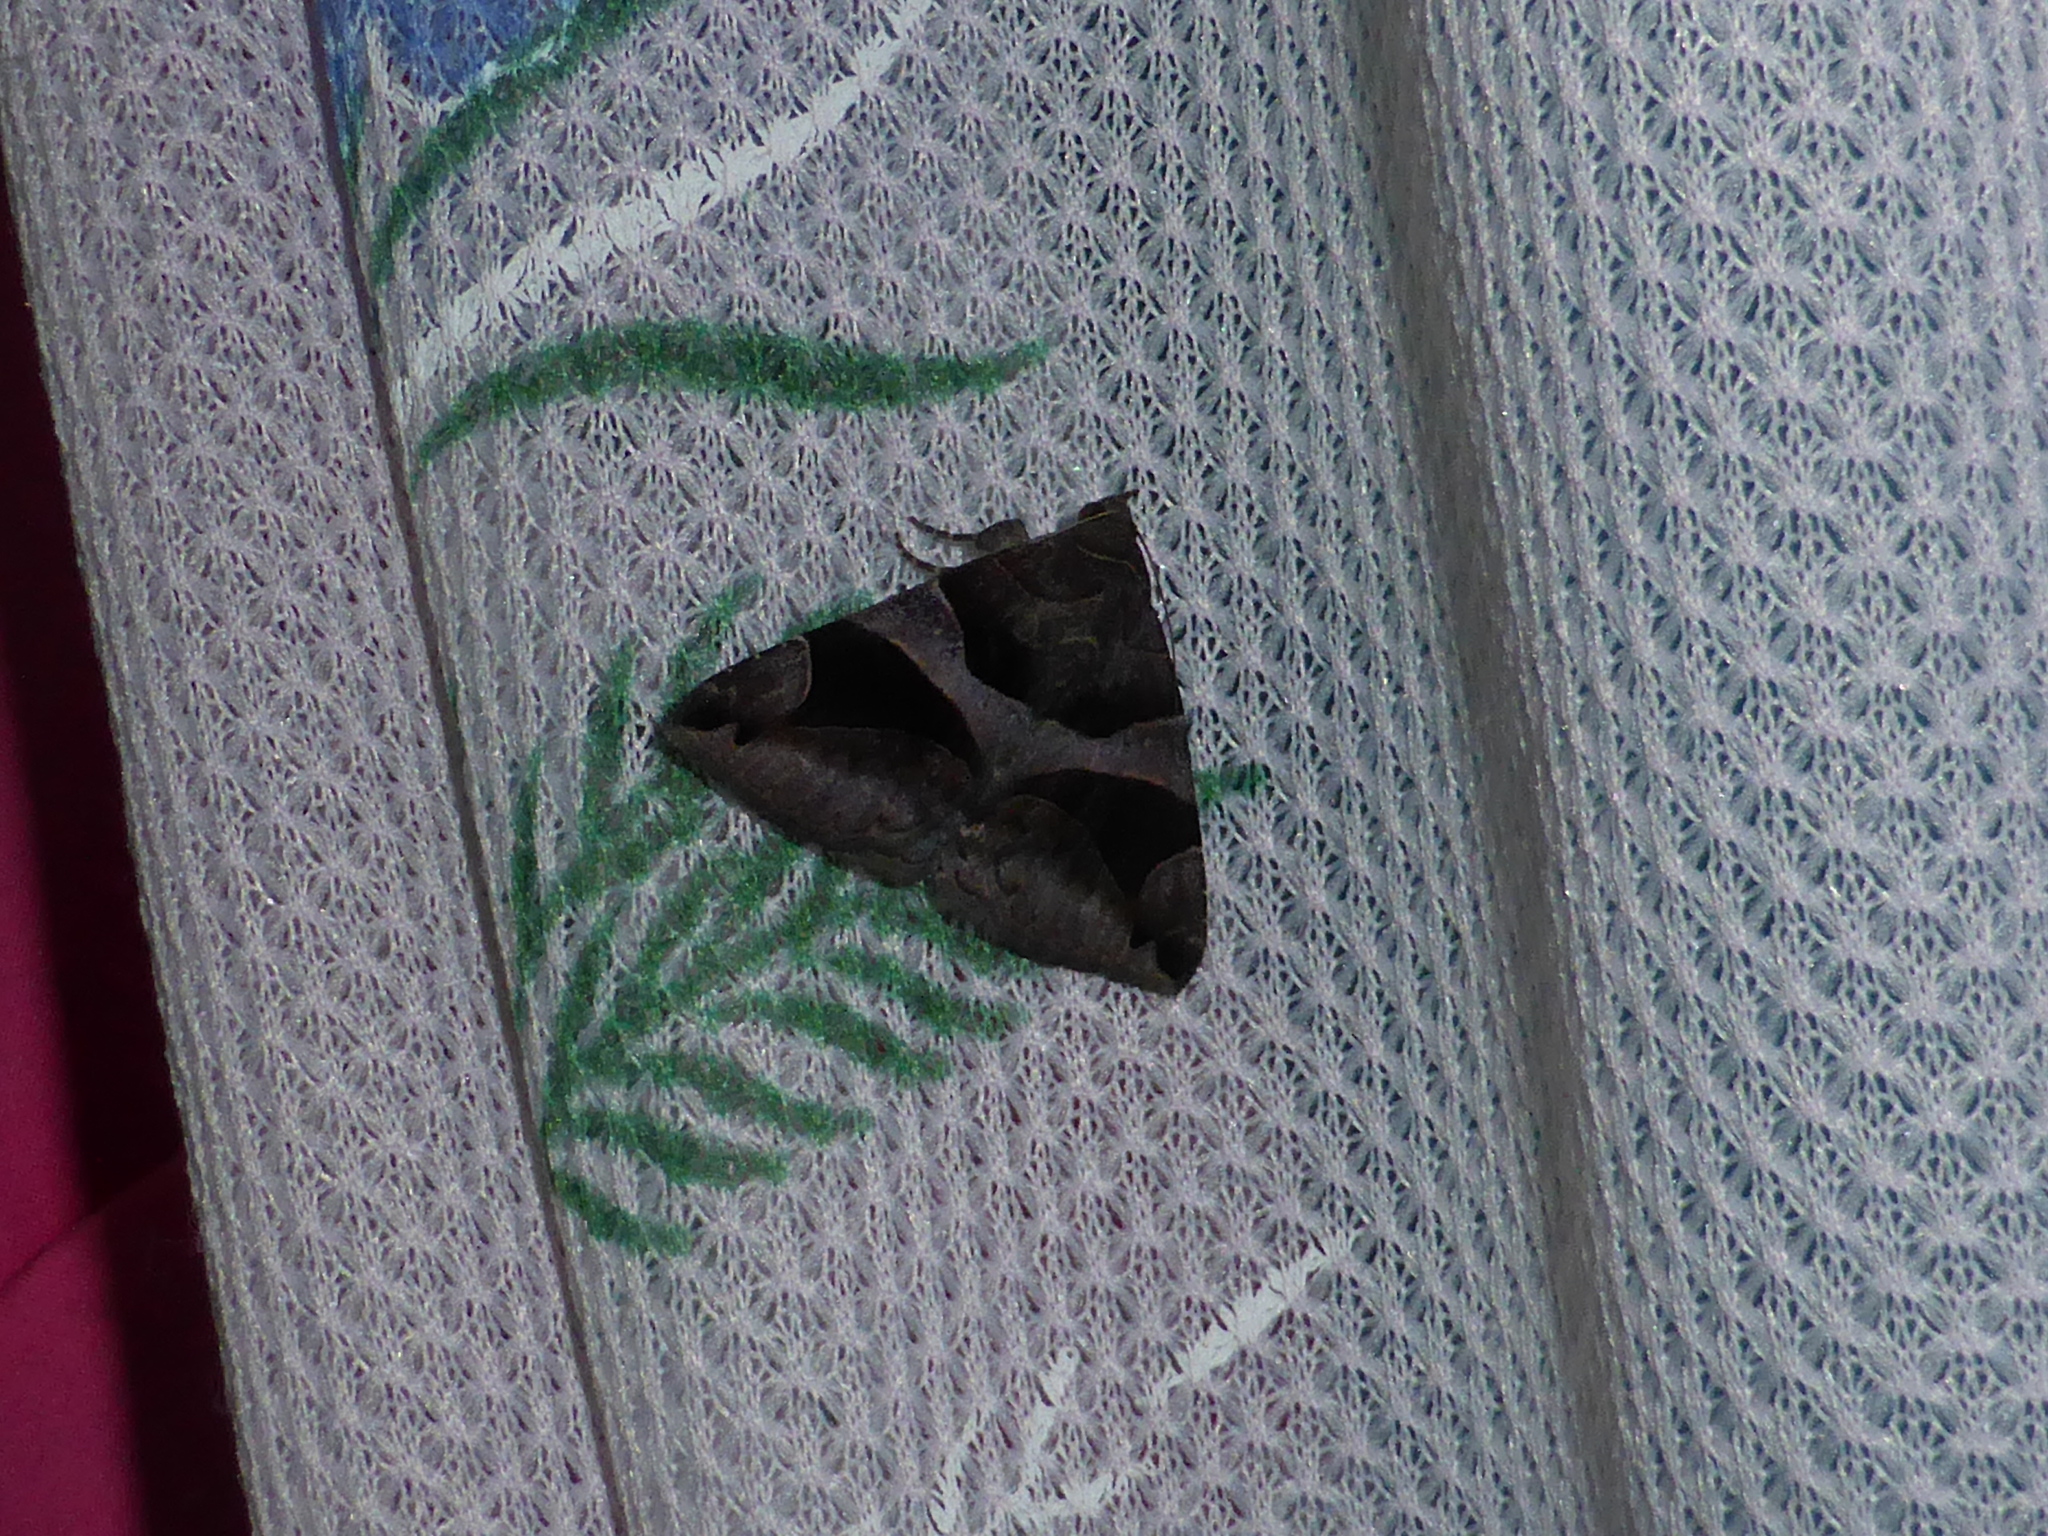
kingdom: Animalia
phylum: Arthropoda
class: Insecta
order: Lepidoptera
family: Erebidae
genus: Bastilla
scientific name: Bastilla arcuata
